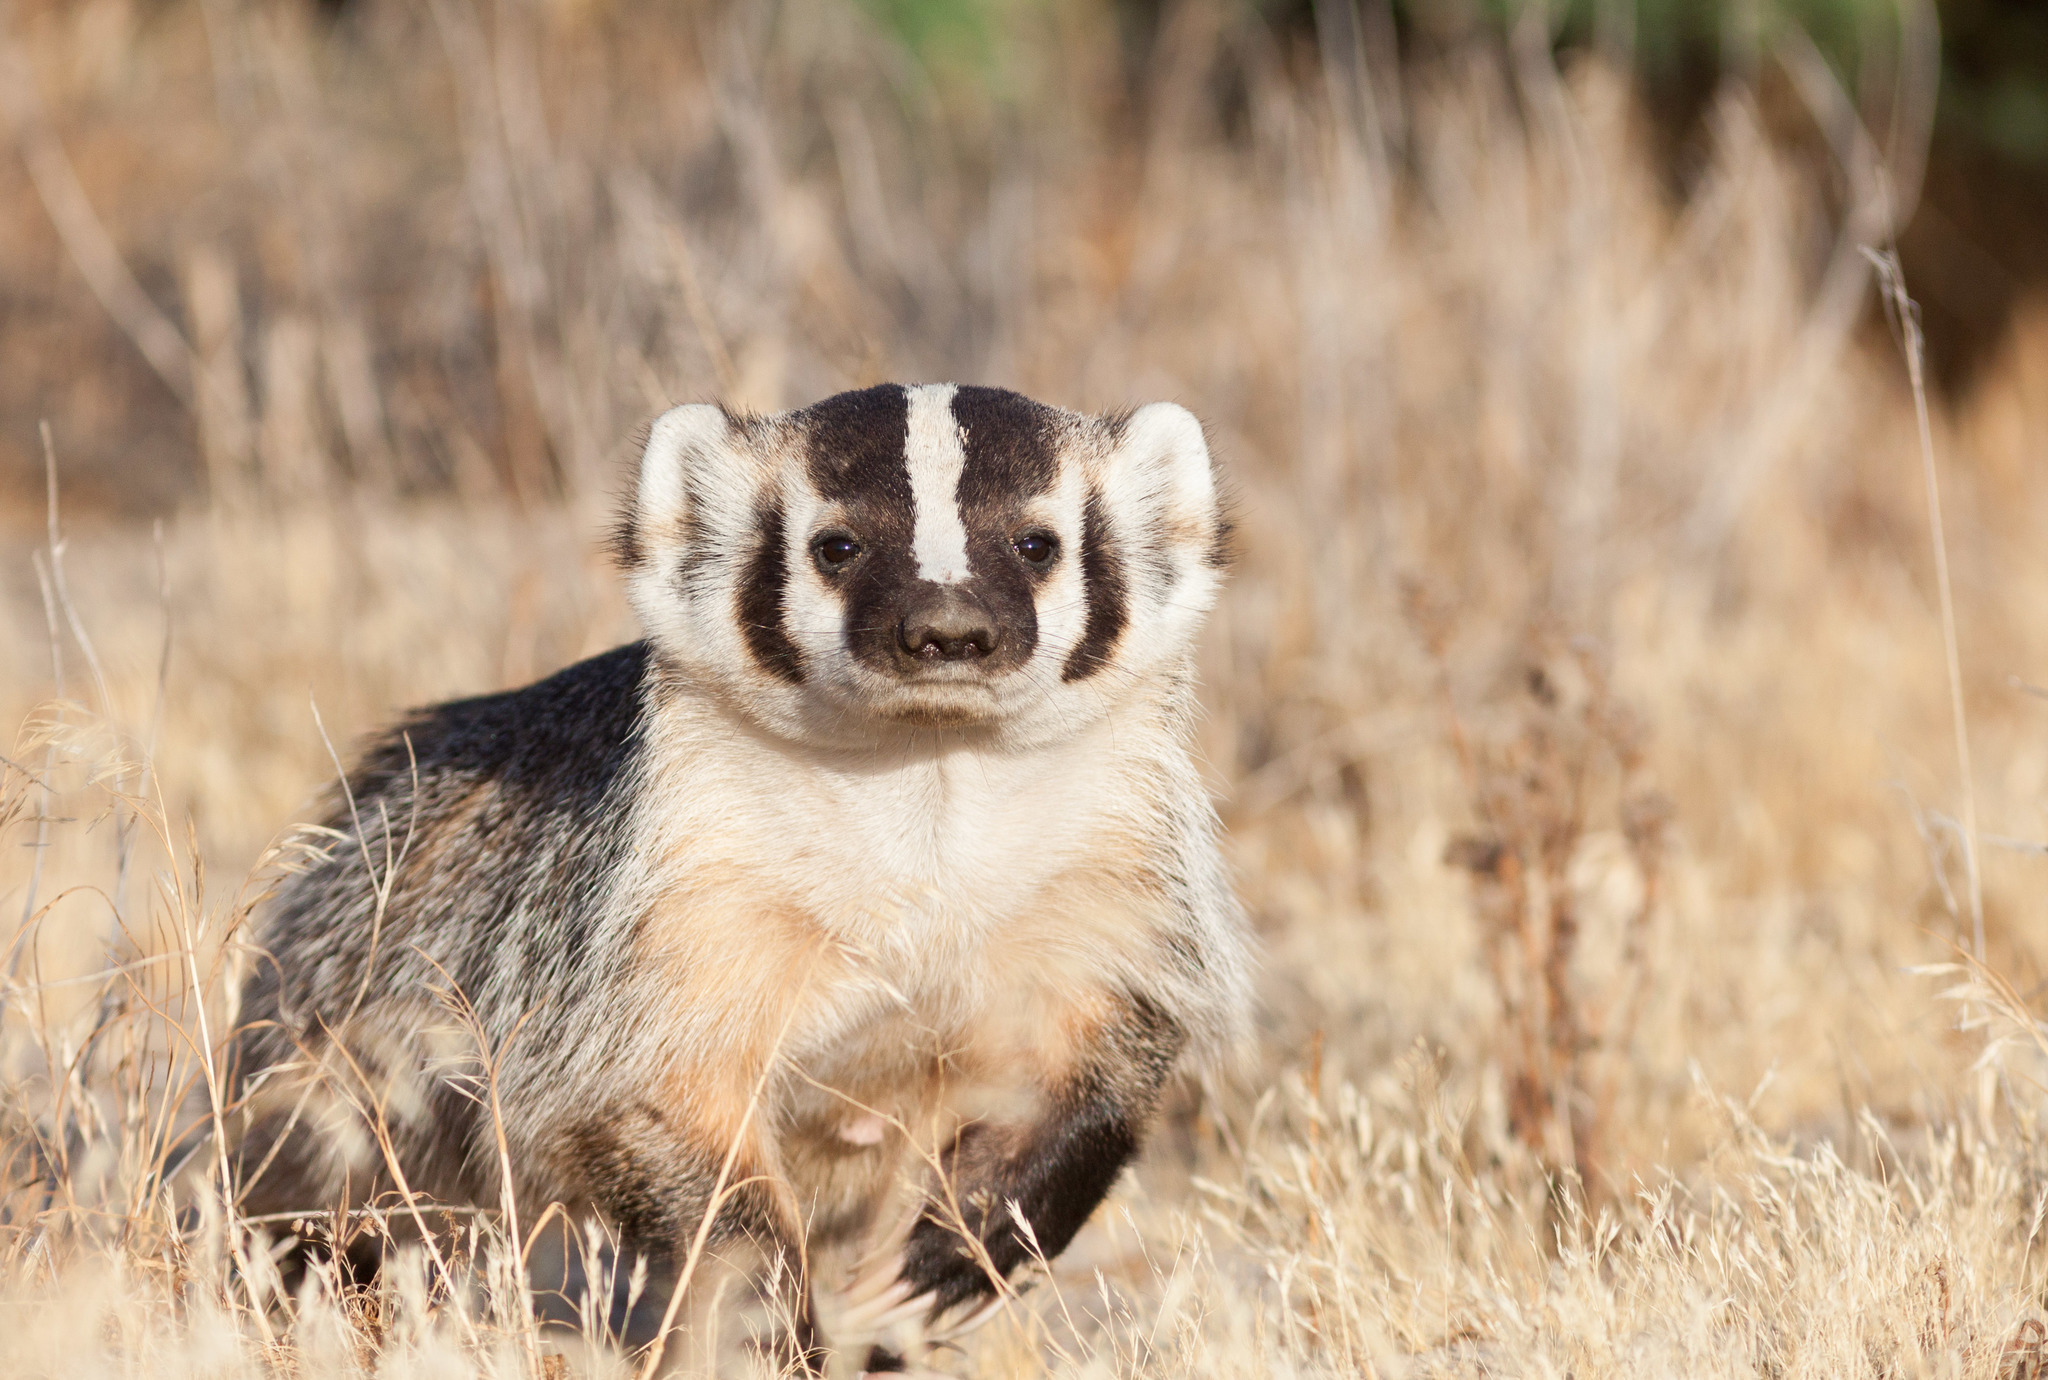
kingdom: Animalia
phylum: Chordata
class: Mammalia
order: Carnivora
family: Mustelidae
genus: Taxidea
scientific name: Taxidea taxus
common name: American badger
